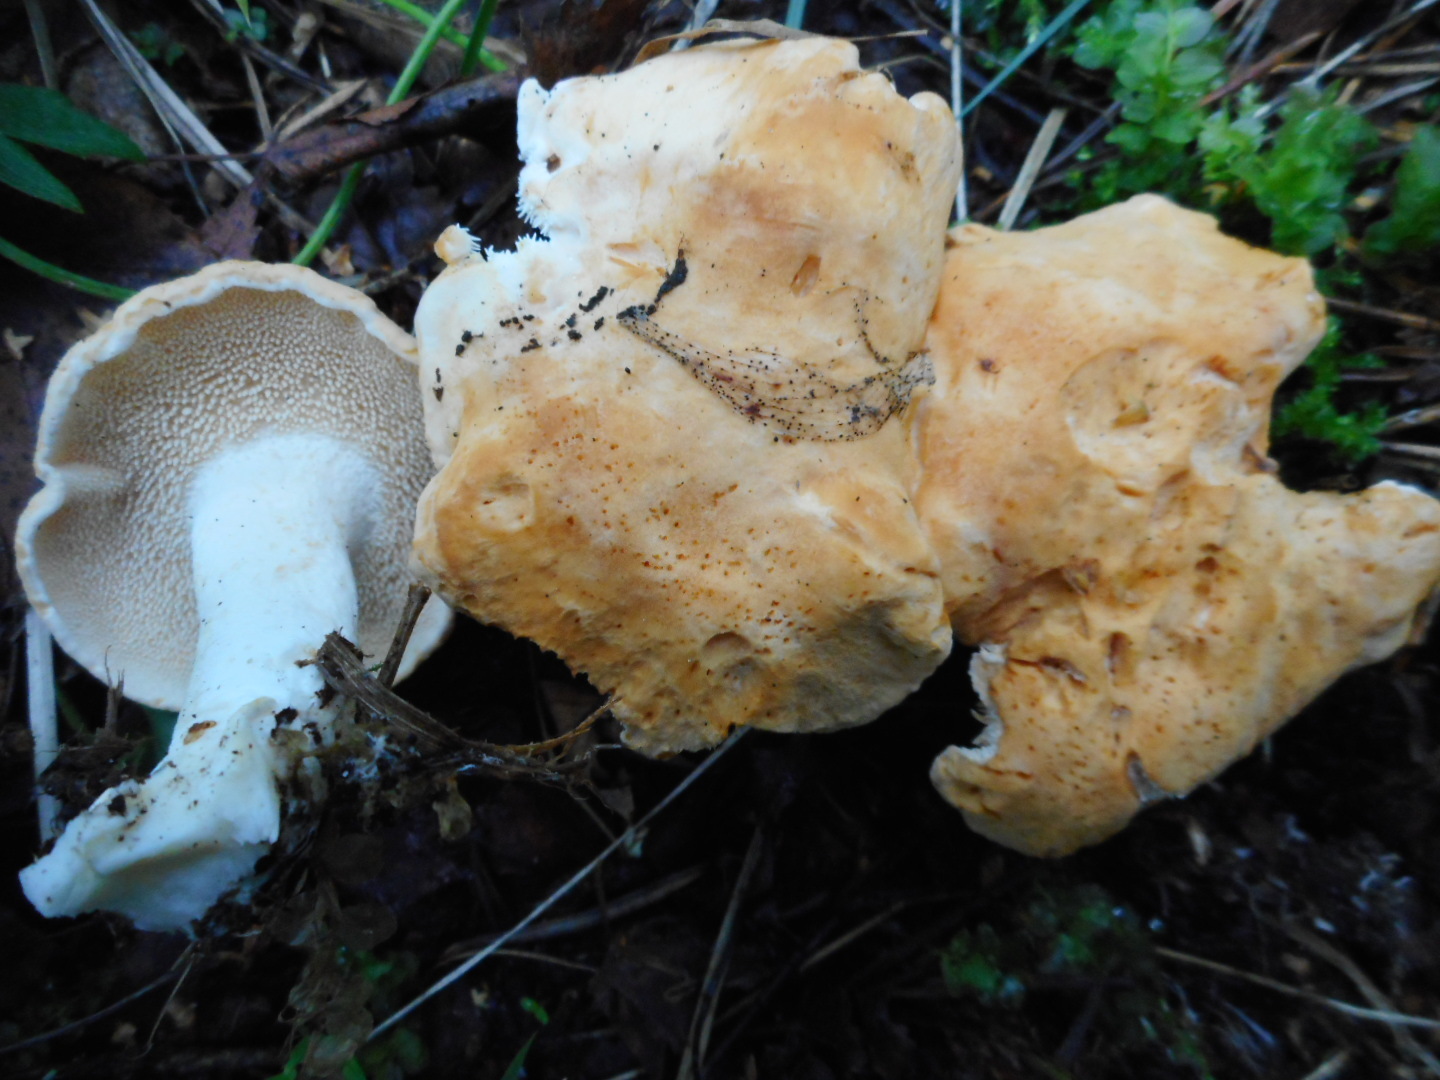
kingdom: Fungi
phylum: Basidiomycota
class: Agaricomycetes
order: Cantharellales
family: Hydnaceae
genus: Hydnum
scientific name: Hydnum repandum
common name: Wood hedgehog
